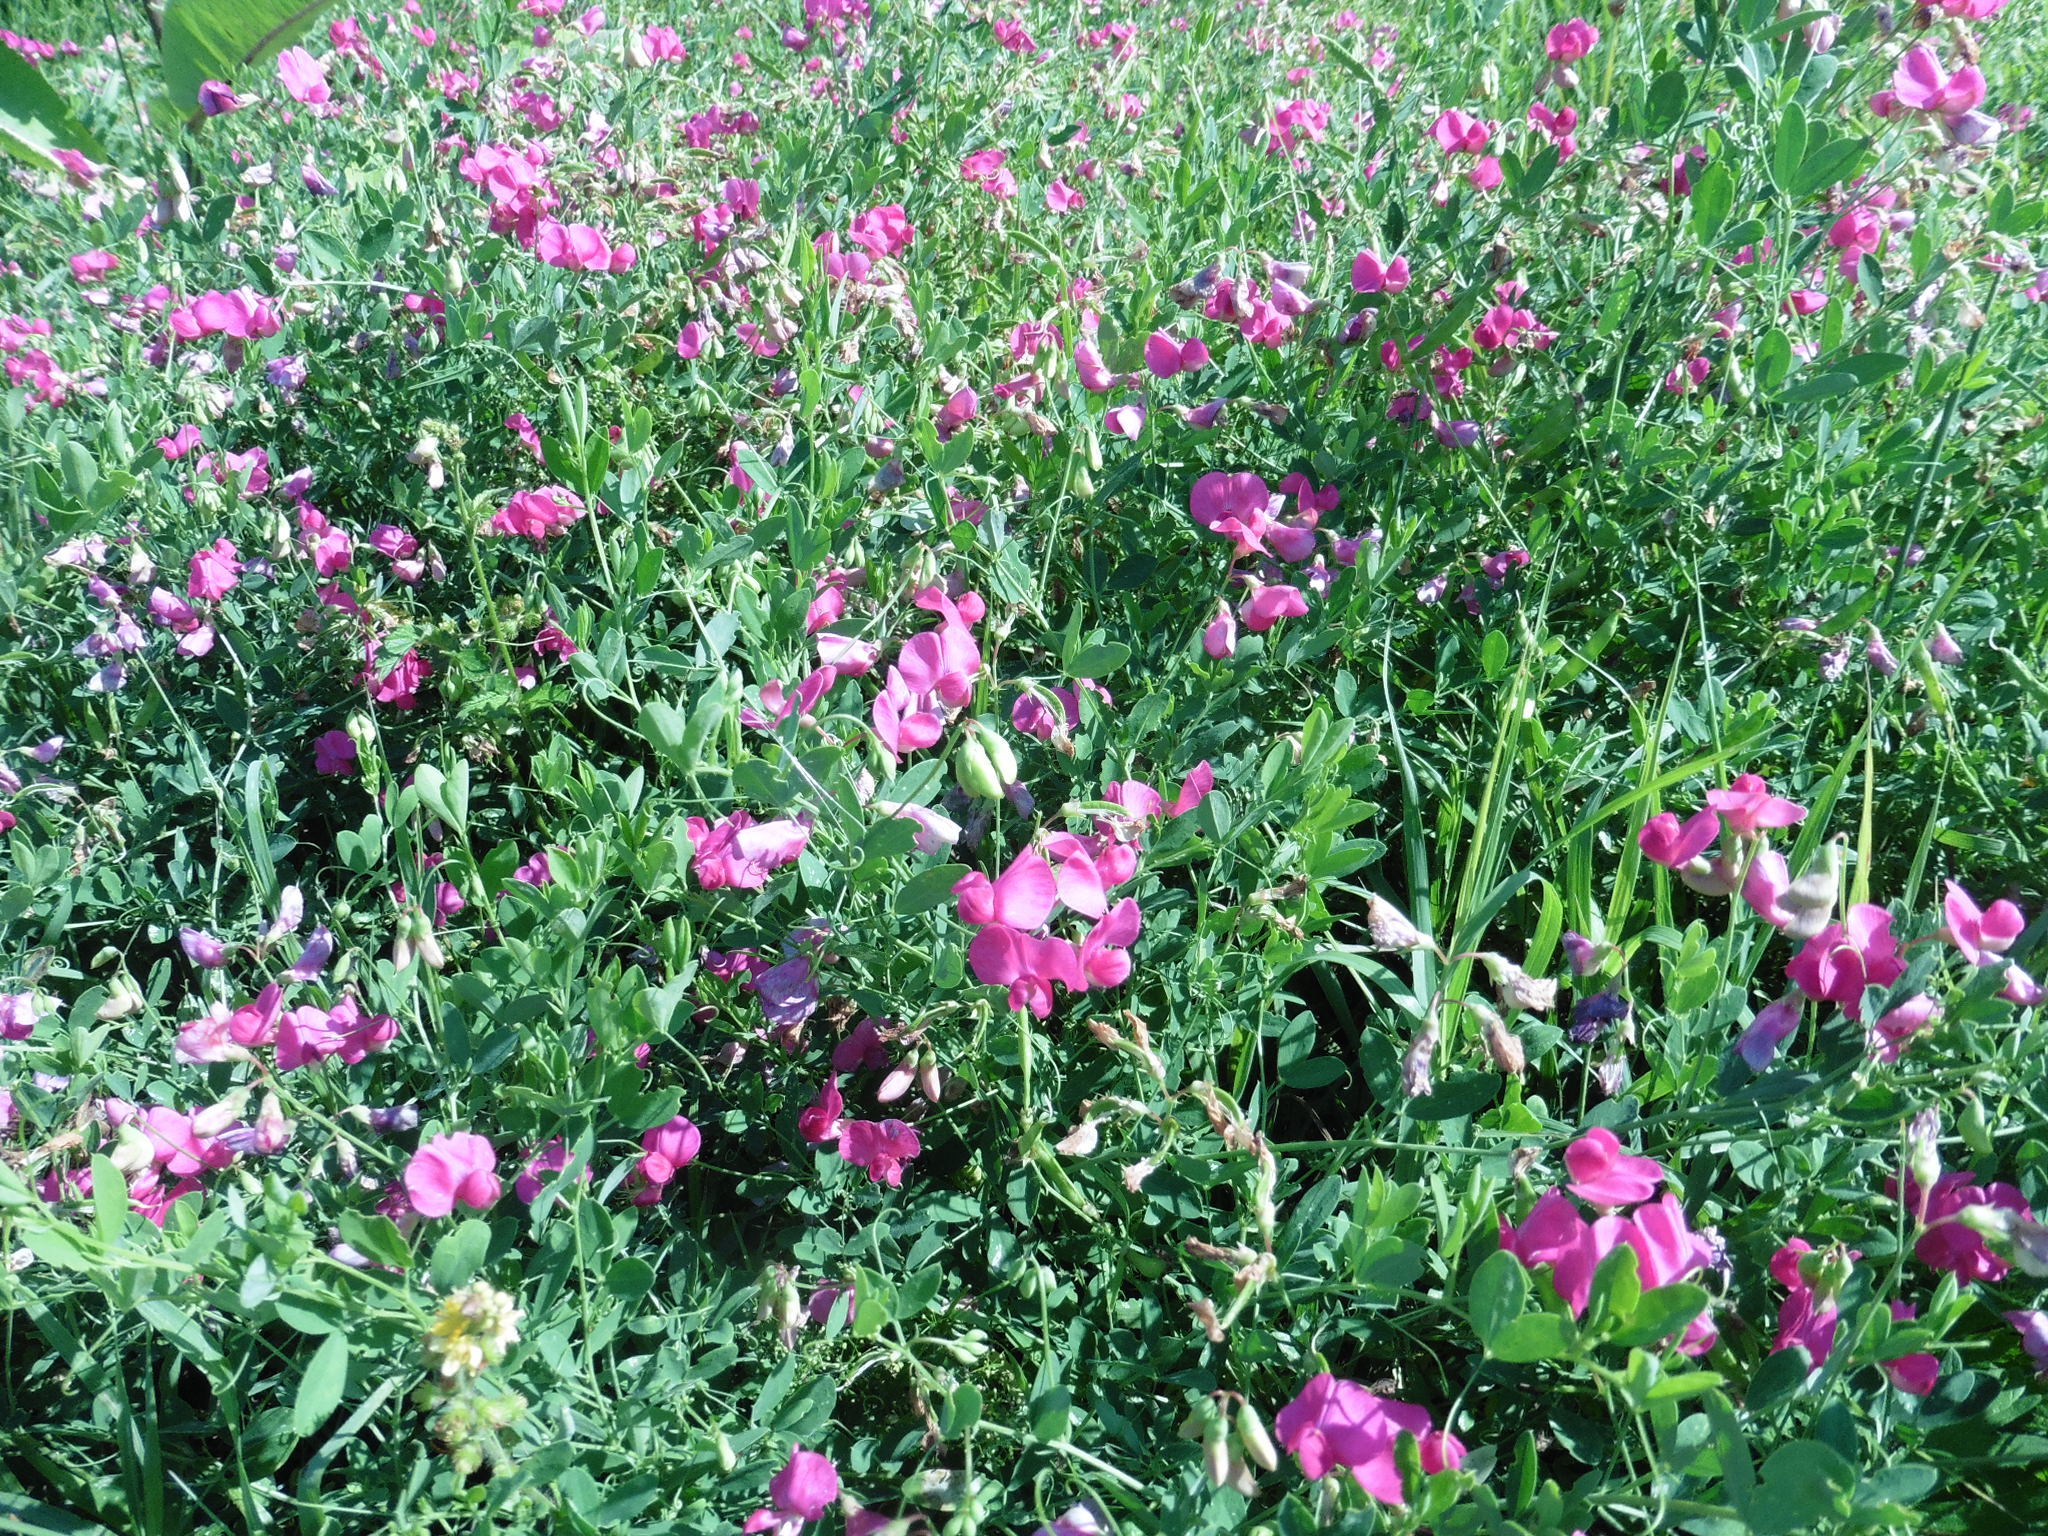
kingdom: Plantae
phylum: Tracheophyta
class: Magnoliopsida
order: Fabales
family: Fabaceae
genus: Lathyrus
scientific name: Lathyrus tuberosus
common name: Tuberous pea
